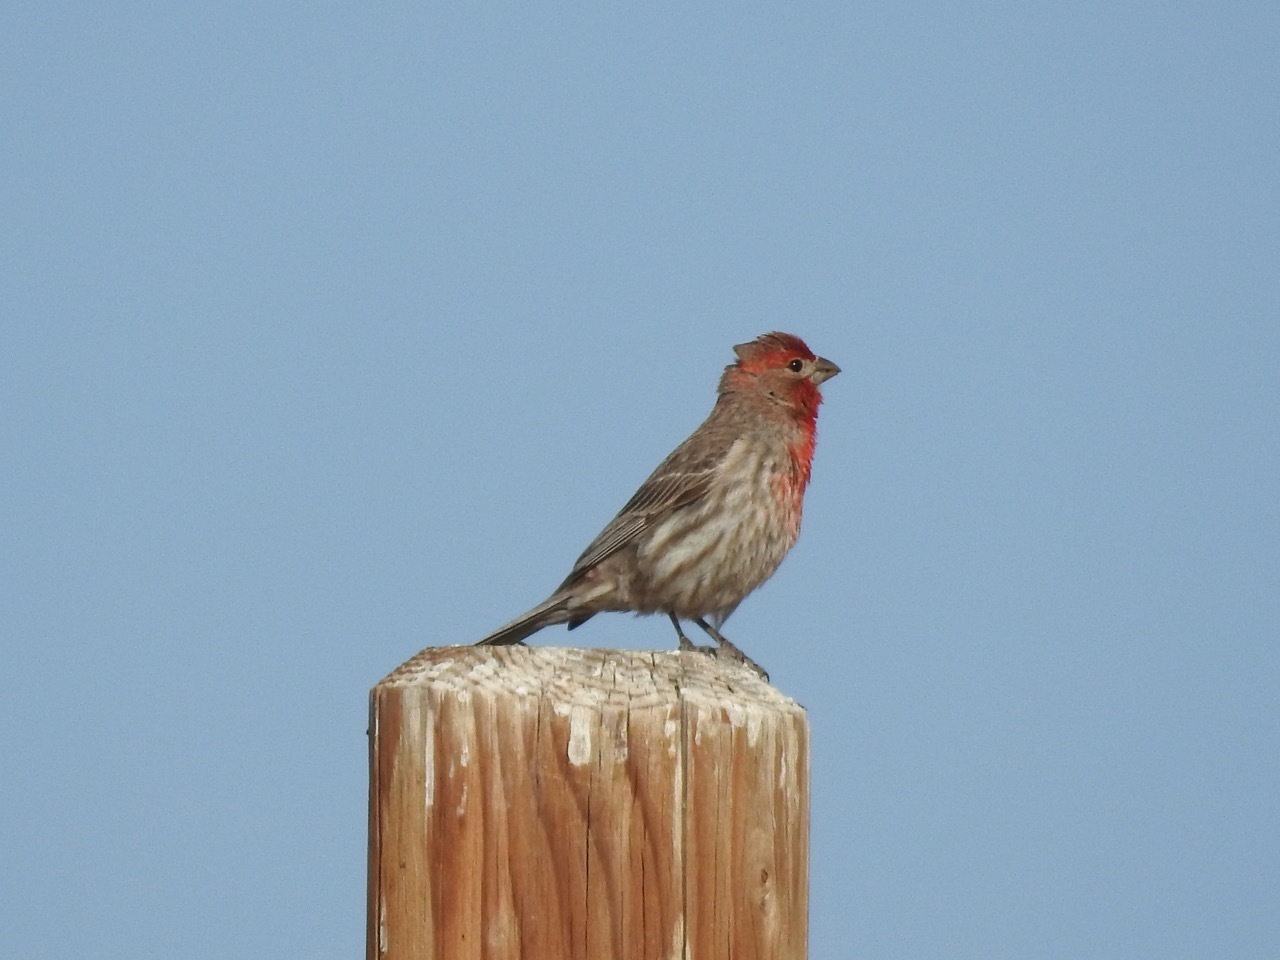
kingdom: Animalia
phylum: Chordata
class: Aves
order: Passeriformes
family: Fringillidae
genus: Haemorhous
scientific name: Haemorhous mexicanus
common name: House finch
